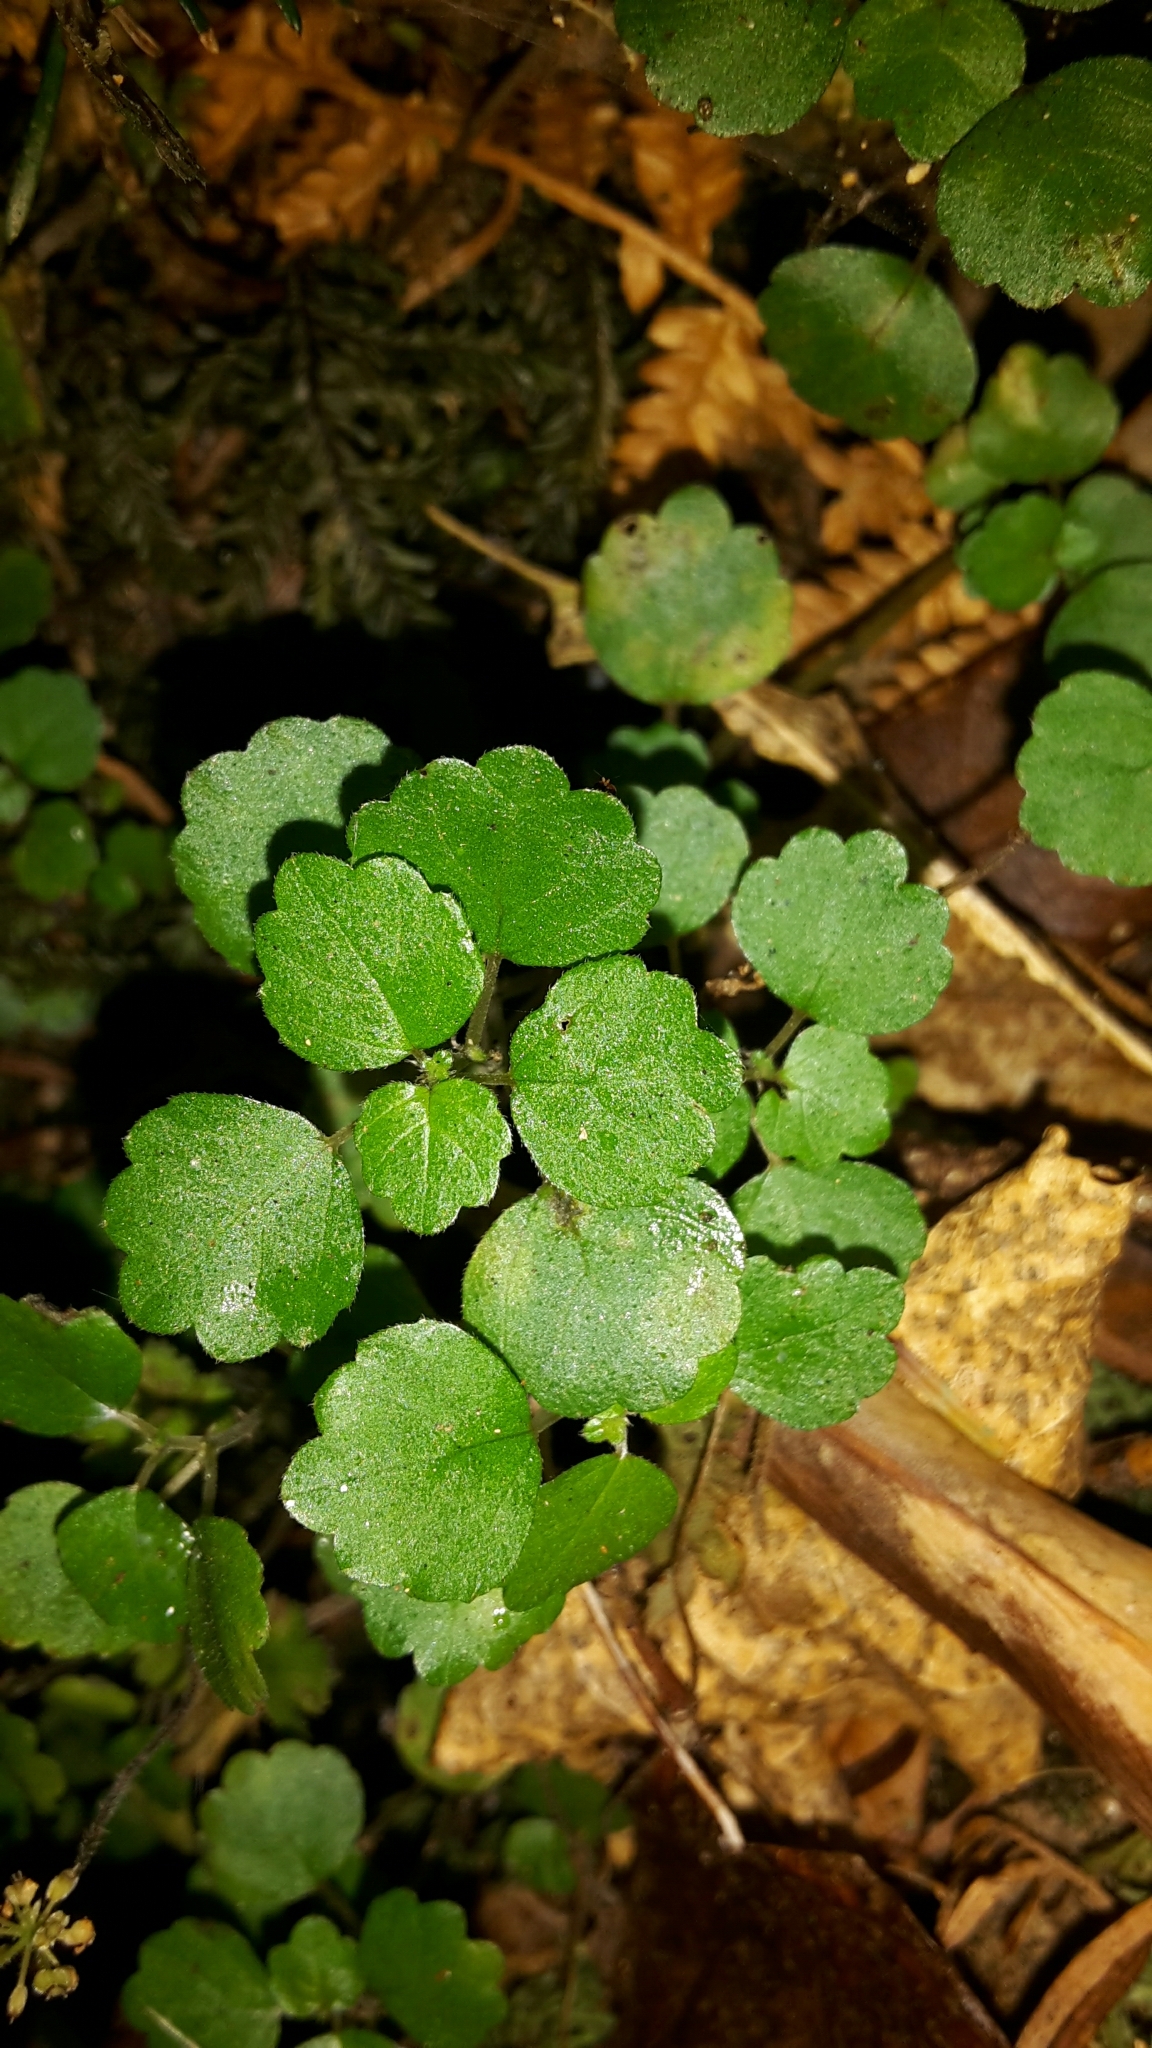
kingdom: Plantae
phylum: Tracheophyta
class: Magnoliopsida
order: Rosales
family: Urticaceae
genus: Australina
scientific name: Australina pusilla
